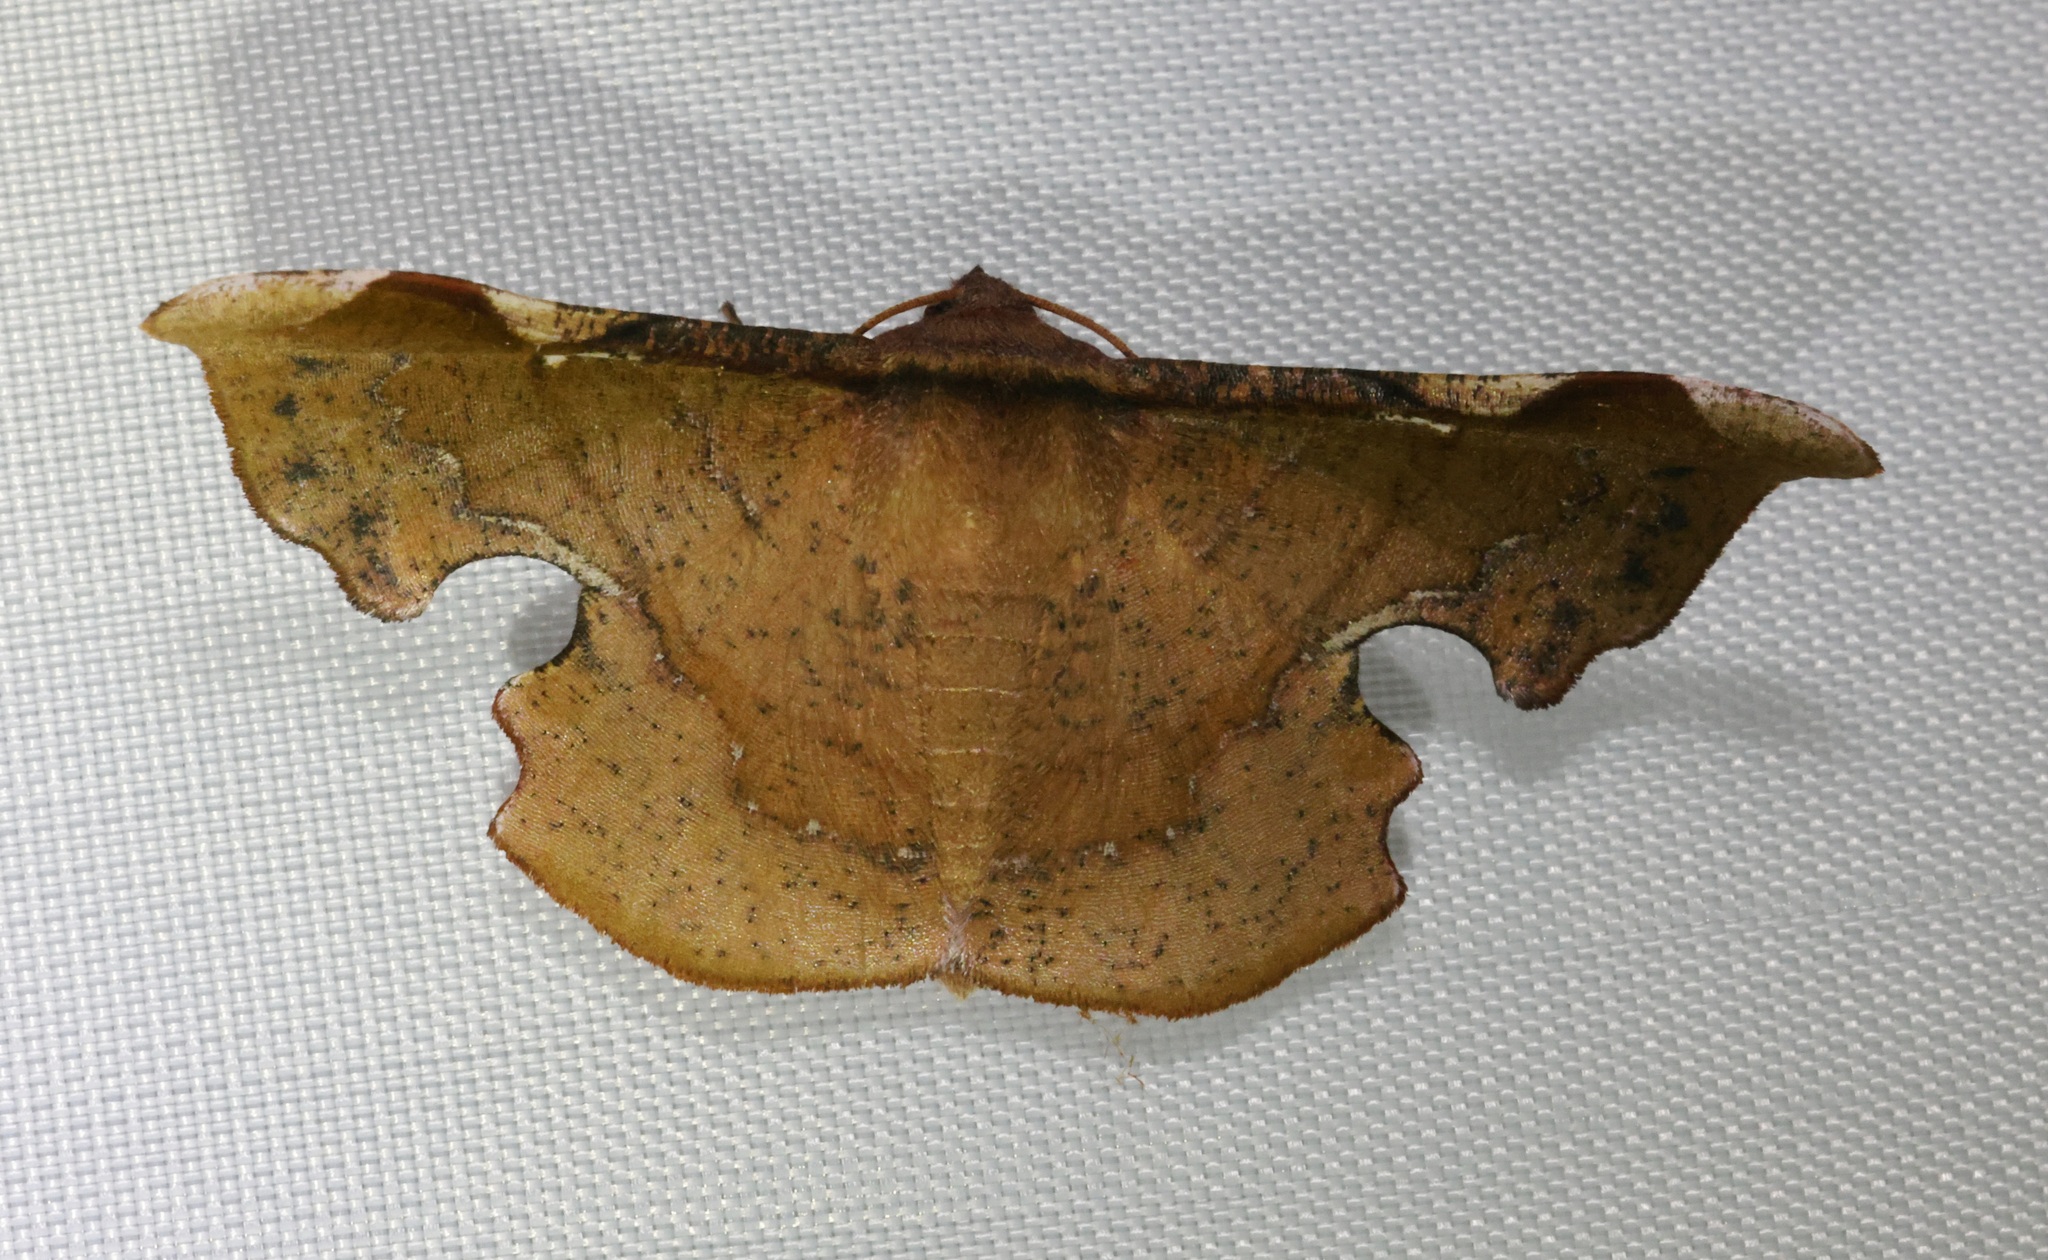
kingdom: Animalia
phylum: Arthropoda
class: Insecta
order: Lepidoptera
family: Geometridae
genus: Fascellina
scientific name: Fascellina chromataria
